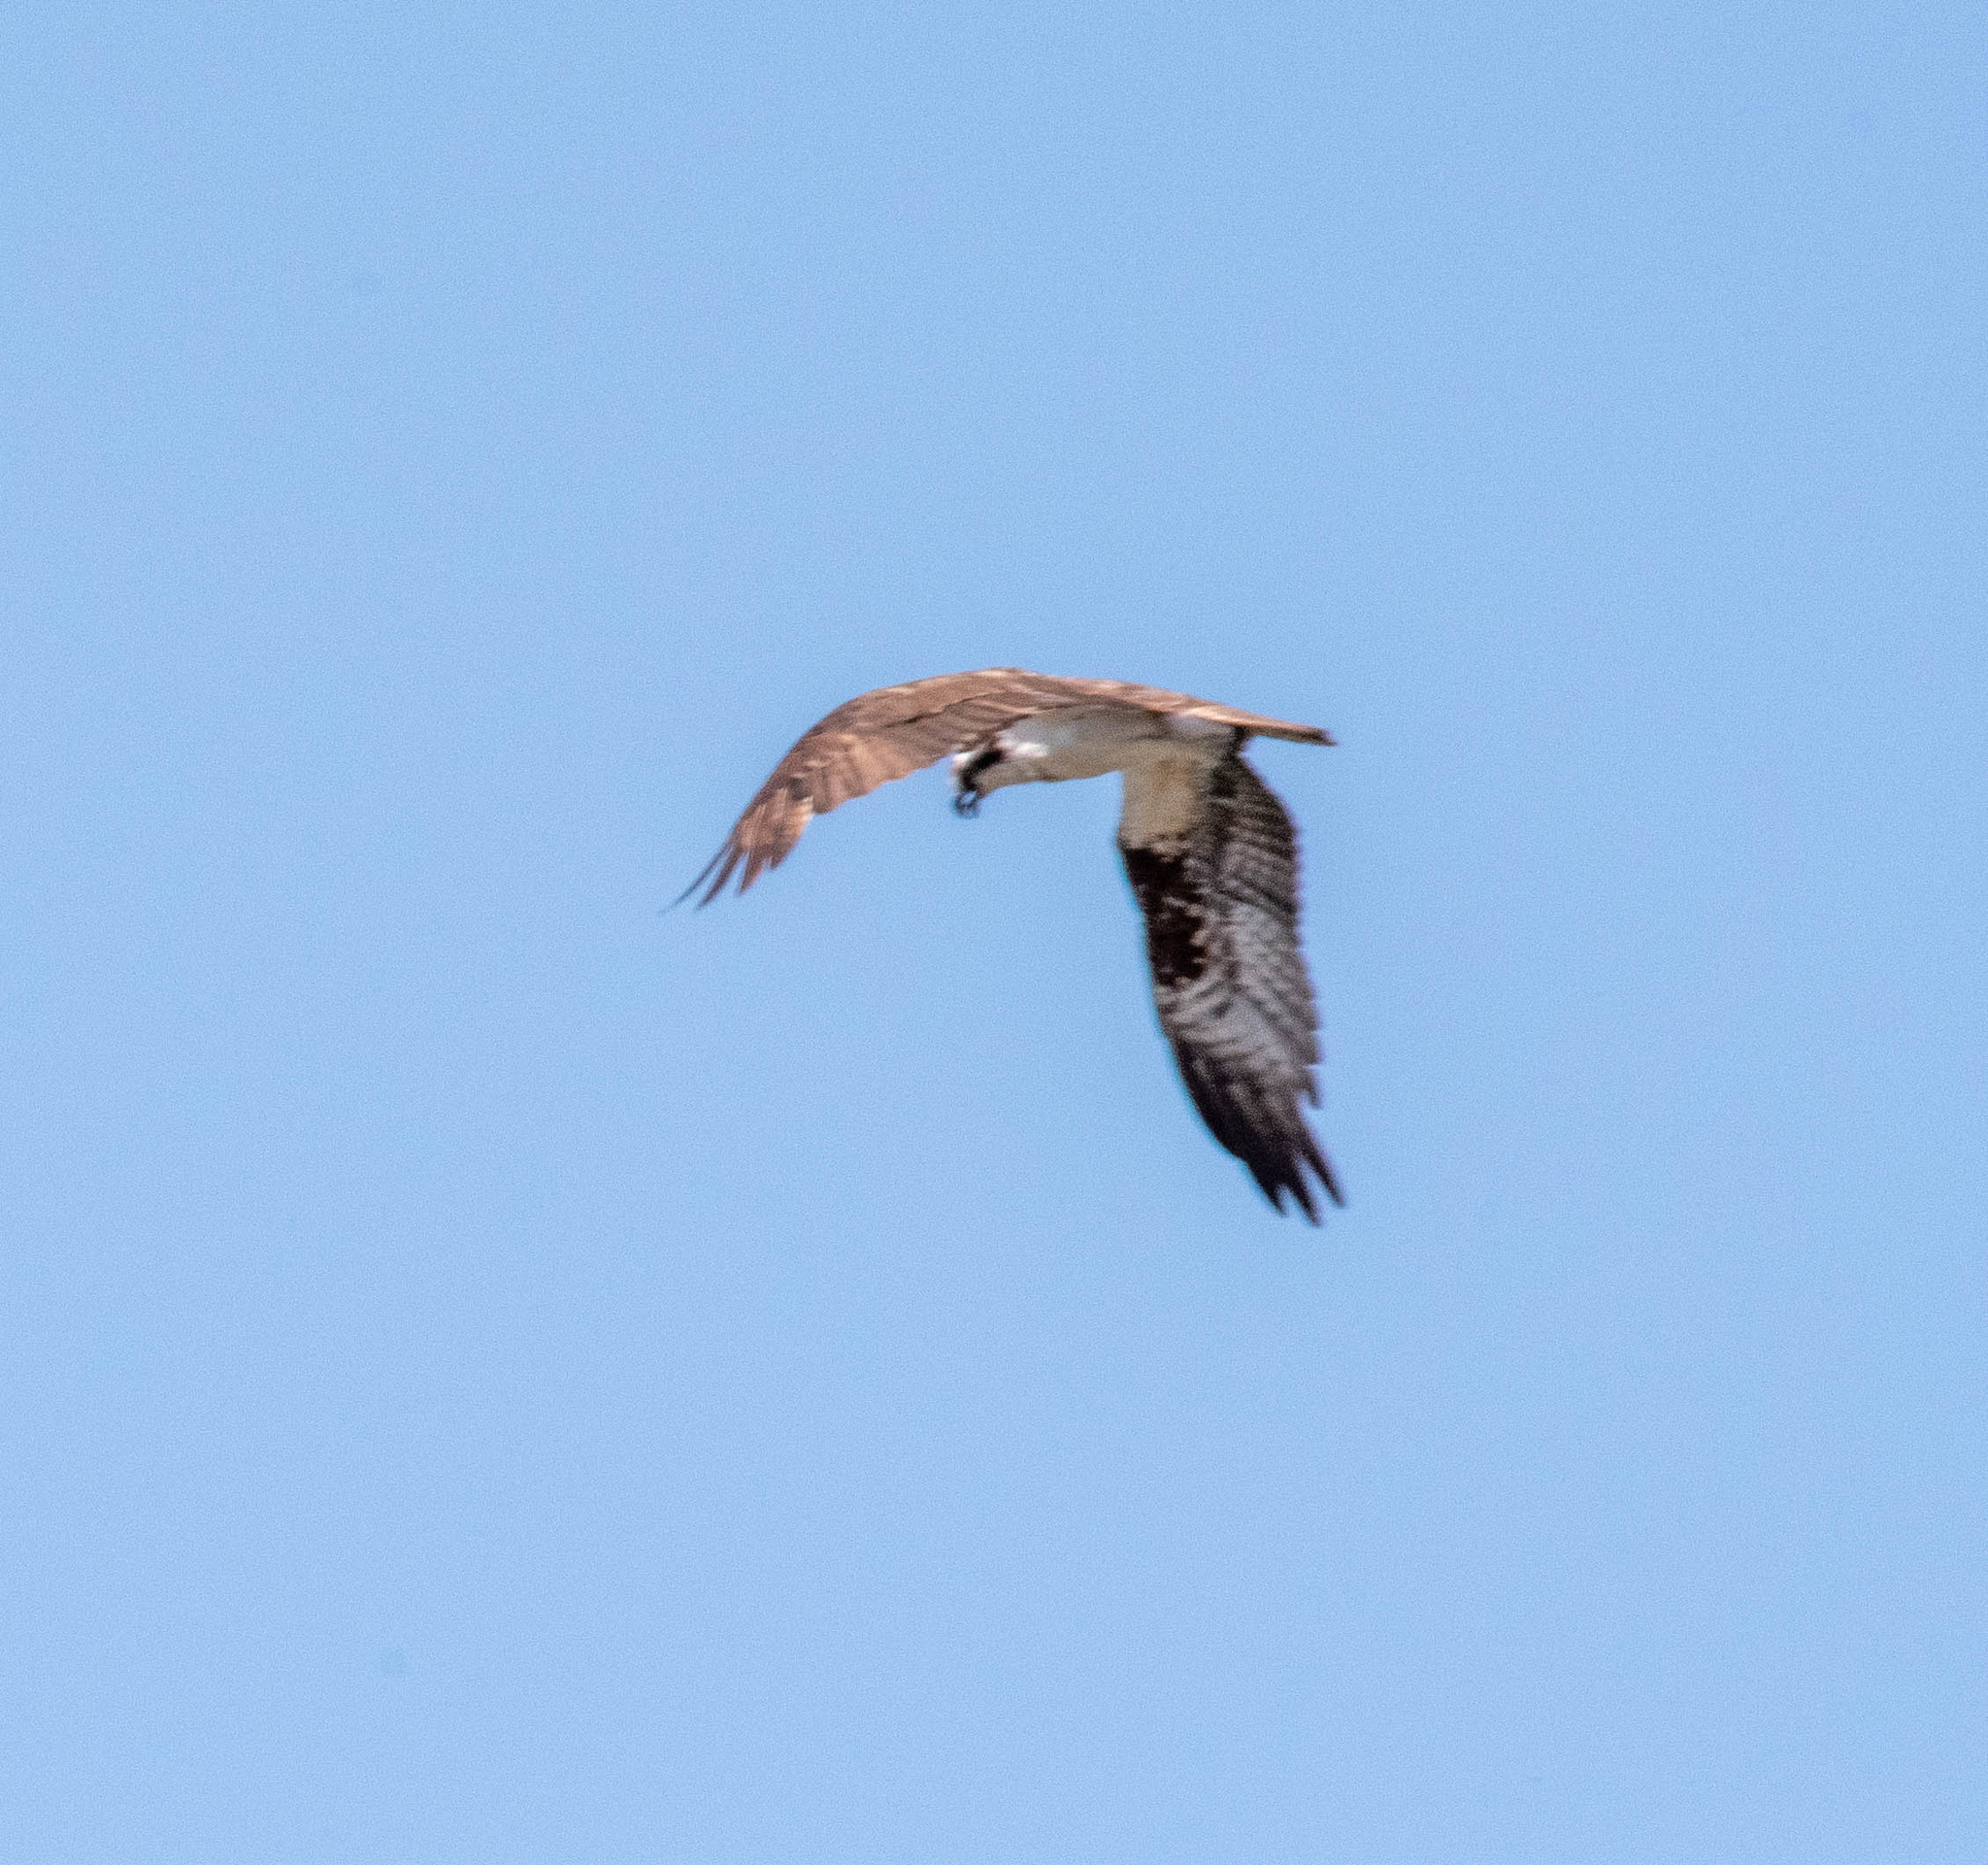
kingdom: Animalia
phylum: Chordata
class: Aves
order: Accipitriformes
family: Pandionidae
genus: Pandion
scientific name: Pandion haliaetus
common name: Osprey
